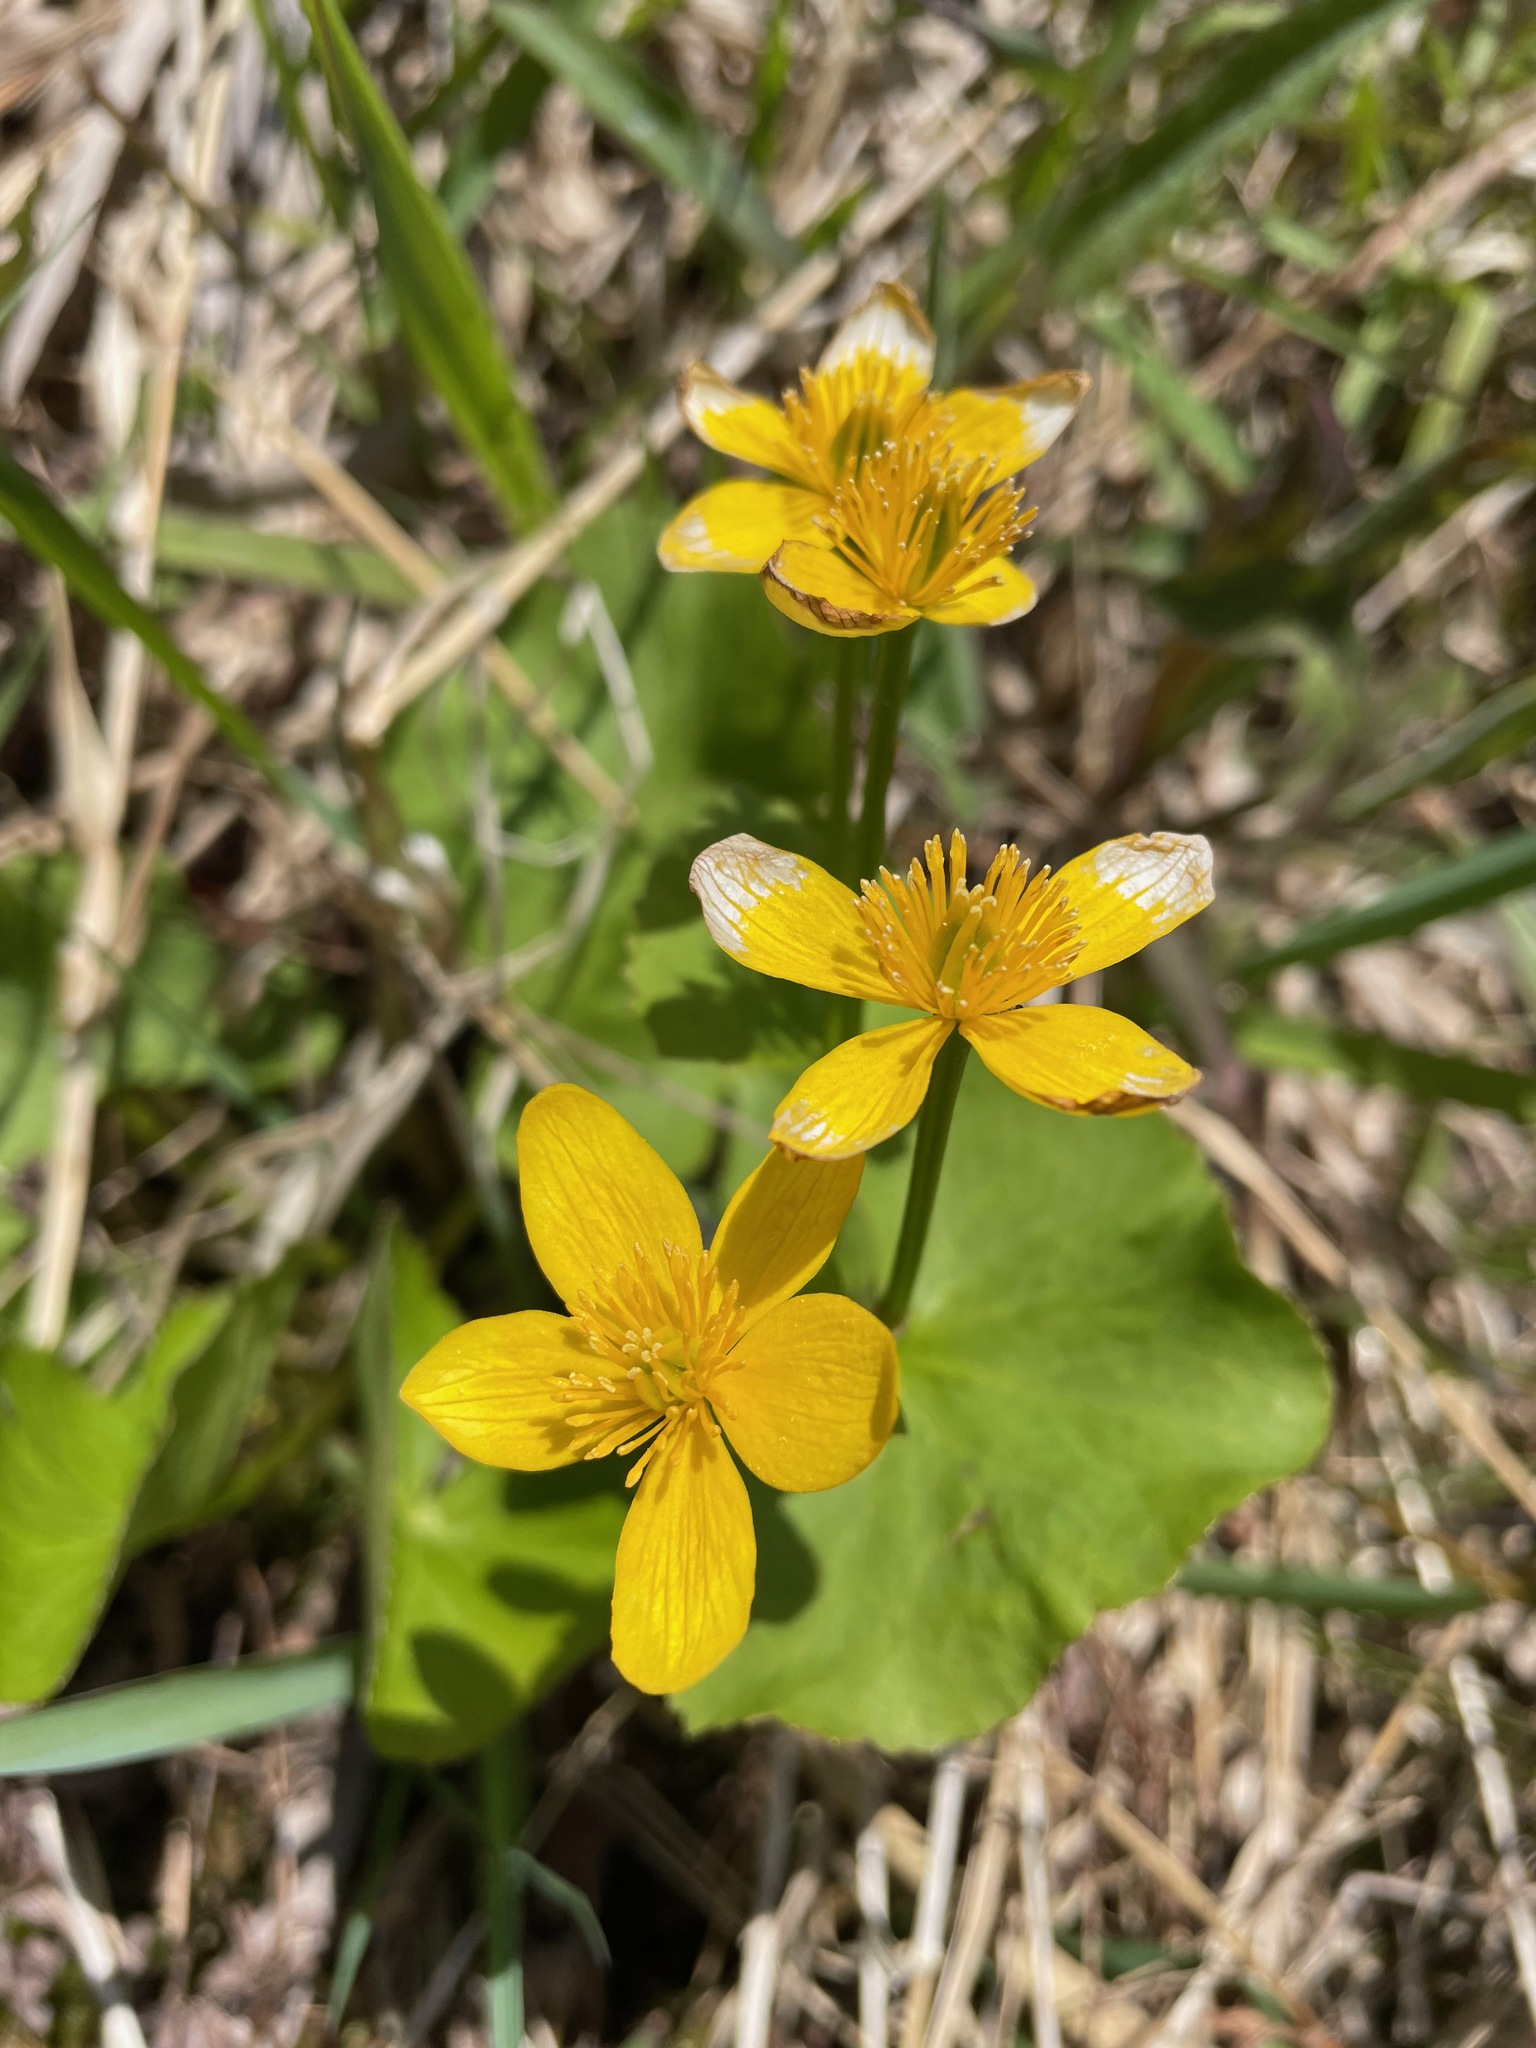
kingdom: Plantae
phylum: Tracheophyta
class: Magnoliopsida
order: Ranunculales
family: Ranunculaceae
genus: Caltha
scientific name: Caltha palustris
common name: Marsh marigold
